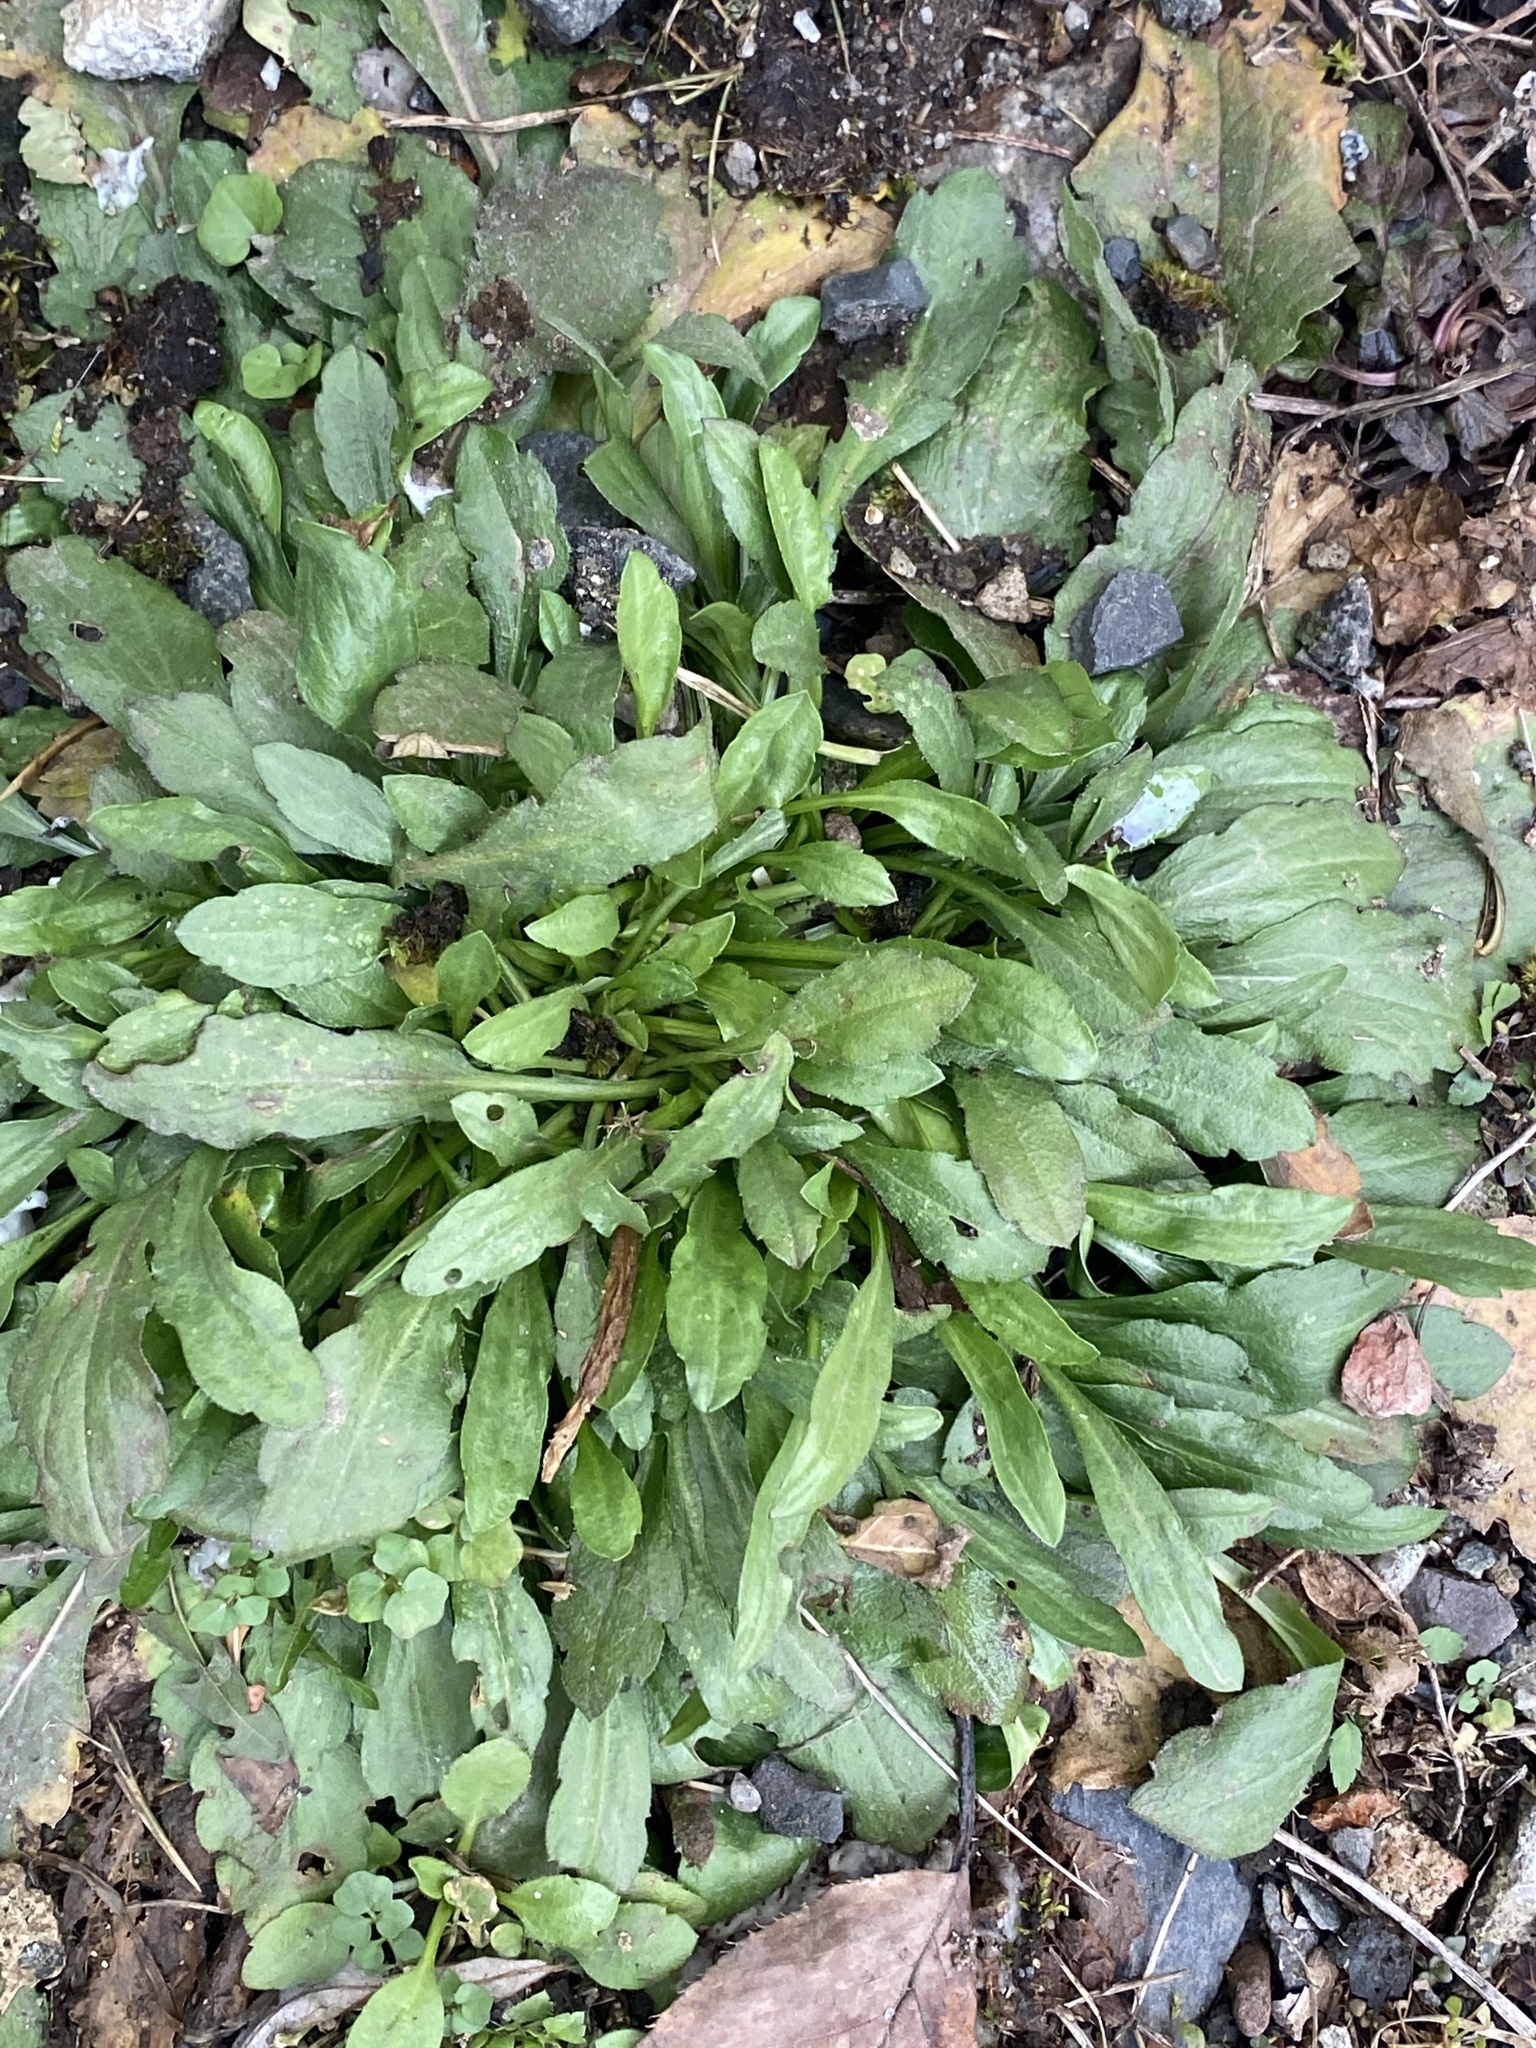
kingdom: Plantae
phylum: Tracheophyta
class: Magnoliopsida
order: Asterales
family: Asteraceae
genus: Erigeron
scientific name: Erigeron canadensis
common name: Canadian fleabane
